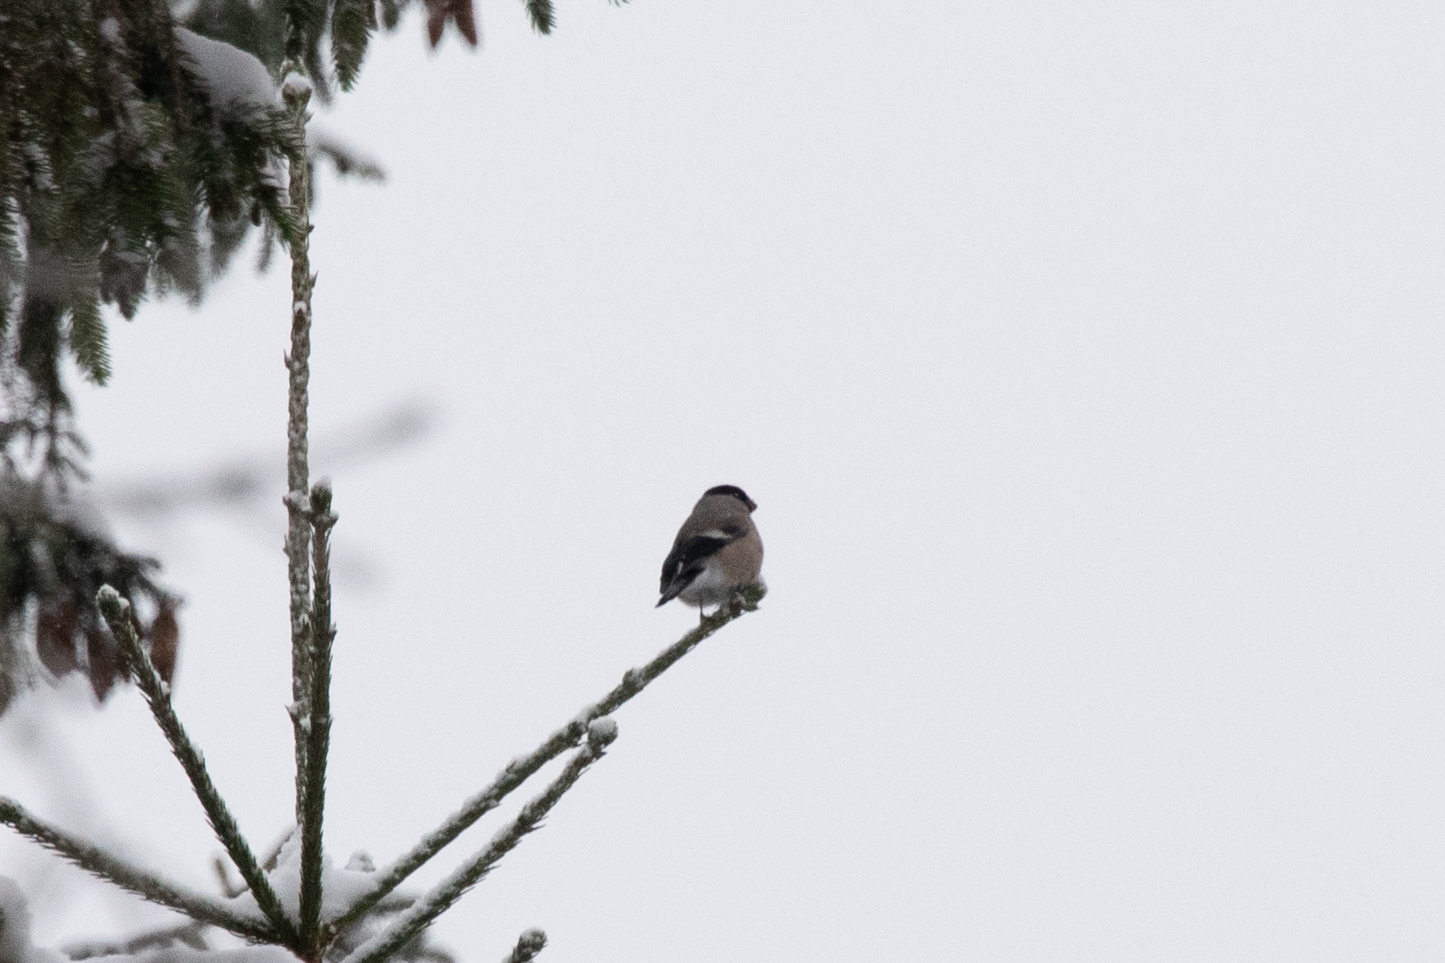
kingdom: Animalia
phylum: Chordata
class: Aves
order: Passeriformes
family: Fringillidae
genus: Pyrrhula
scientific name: Pyrrhula pyrrhula
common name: Eurasian bullfinch
